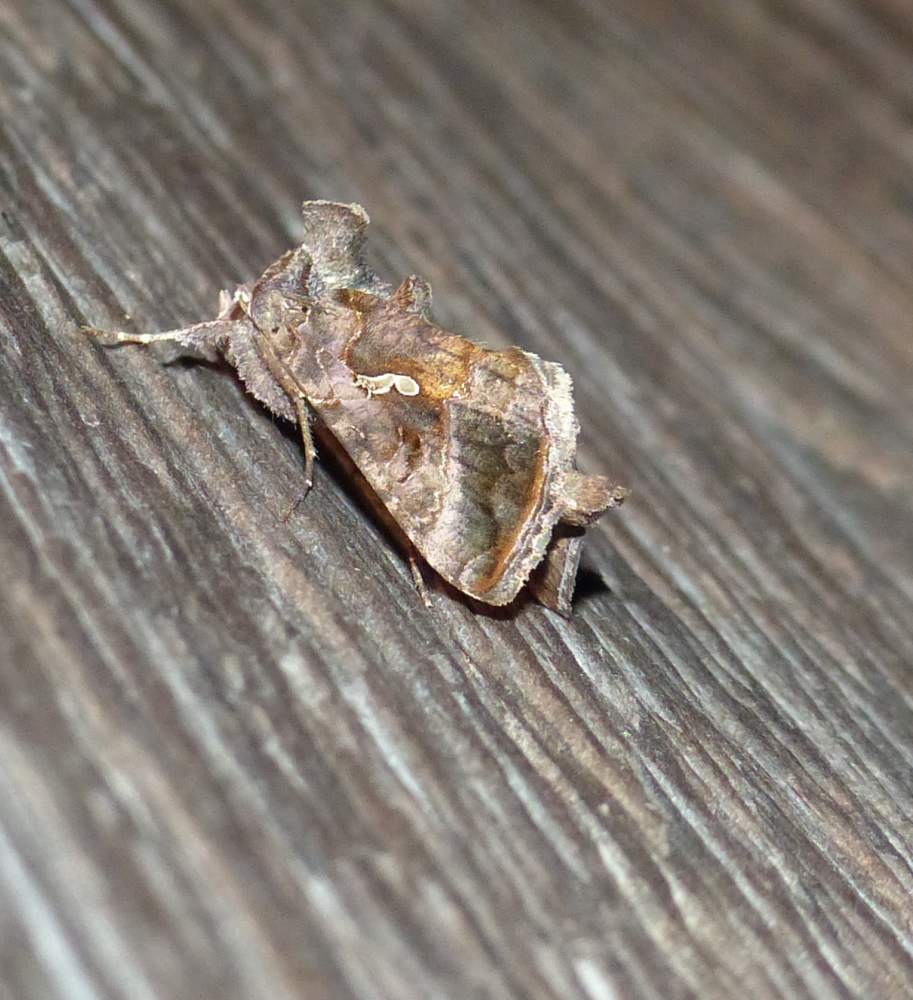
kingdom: Animalia
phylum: Arthropoda
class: Insecta
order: Lepidoptera
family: Noctuidae
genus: Autographa
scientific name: Autographa precationis
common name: Common looper moth
